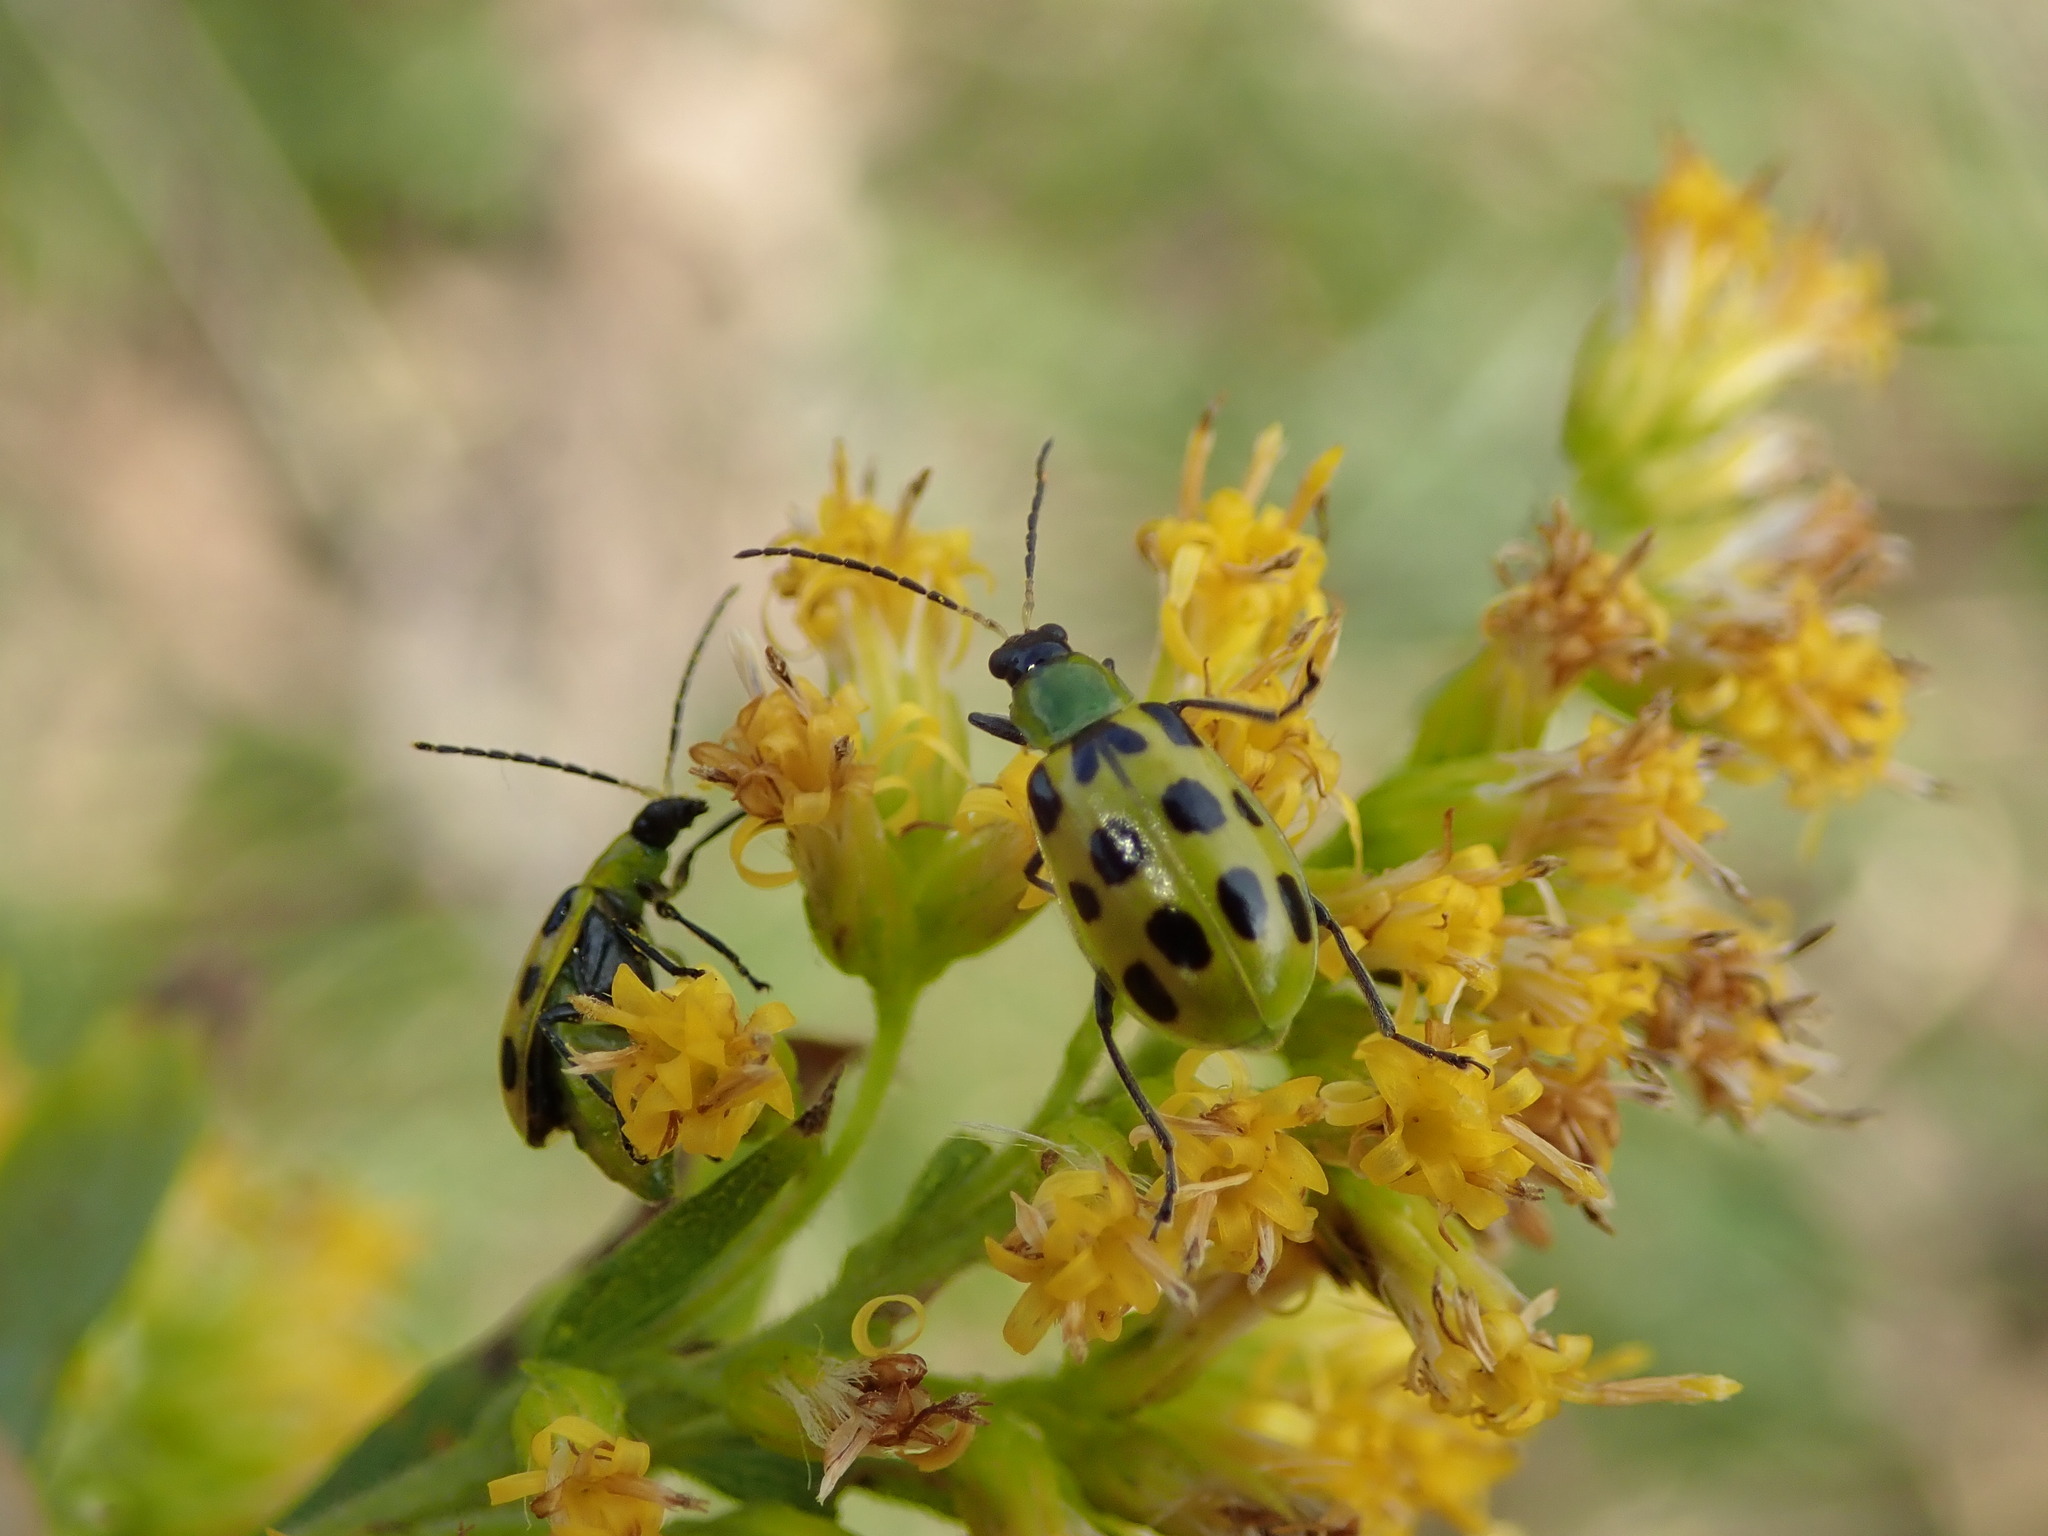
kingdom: Animalia
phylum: Arthropoda
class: Insecta
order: Coleoptera
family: Chrysomelidae
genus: Diabrotica
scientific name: Diabrotica undecimpunctata
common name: Spotted cucumber beetle
